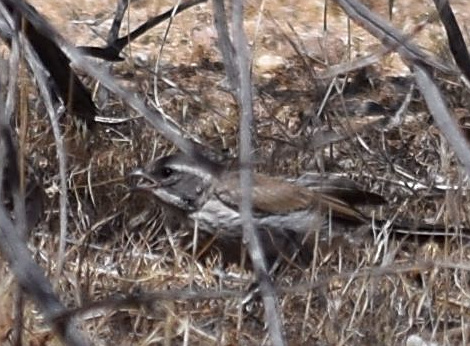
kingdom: Animalia
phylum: Chordata
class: Aves
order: Passeriformes
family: Passerellidae
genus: Amphispiza
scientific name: Amphispiza bilineata
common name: Black-throated sparrow
